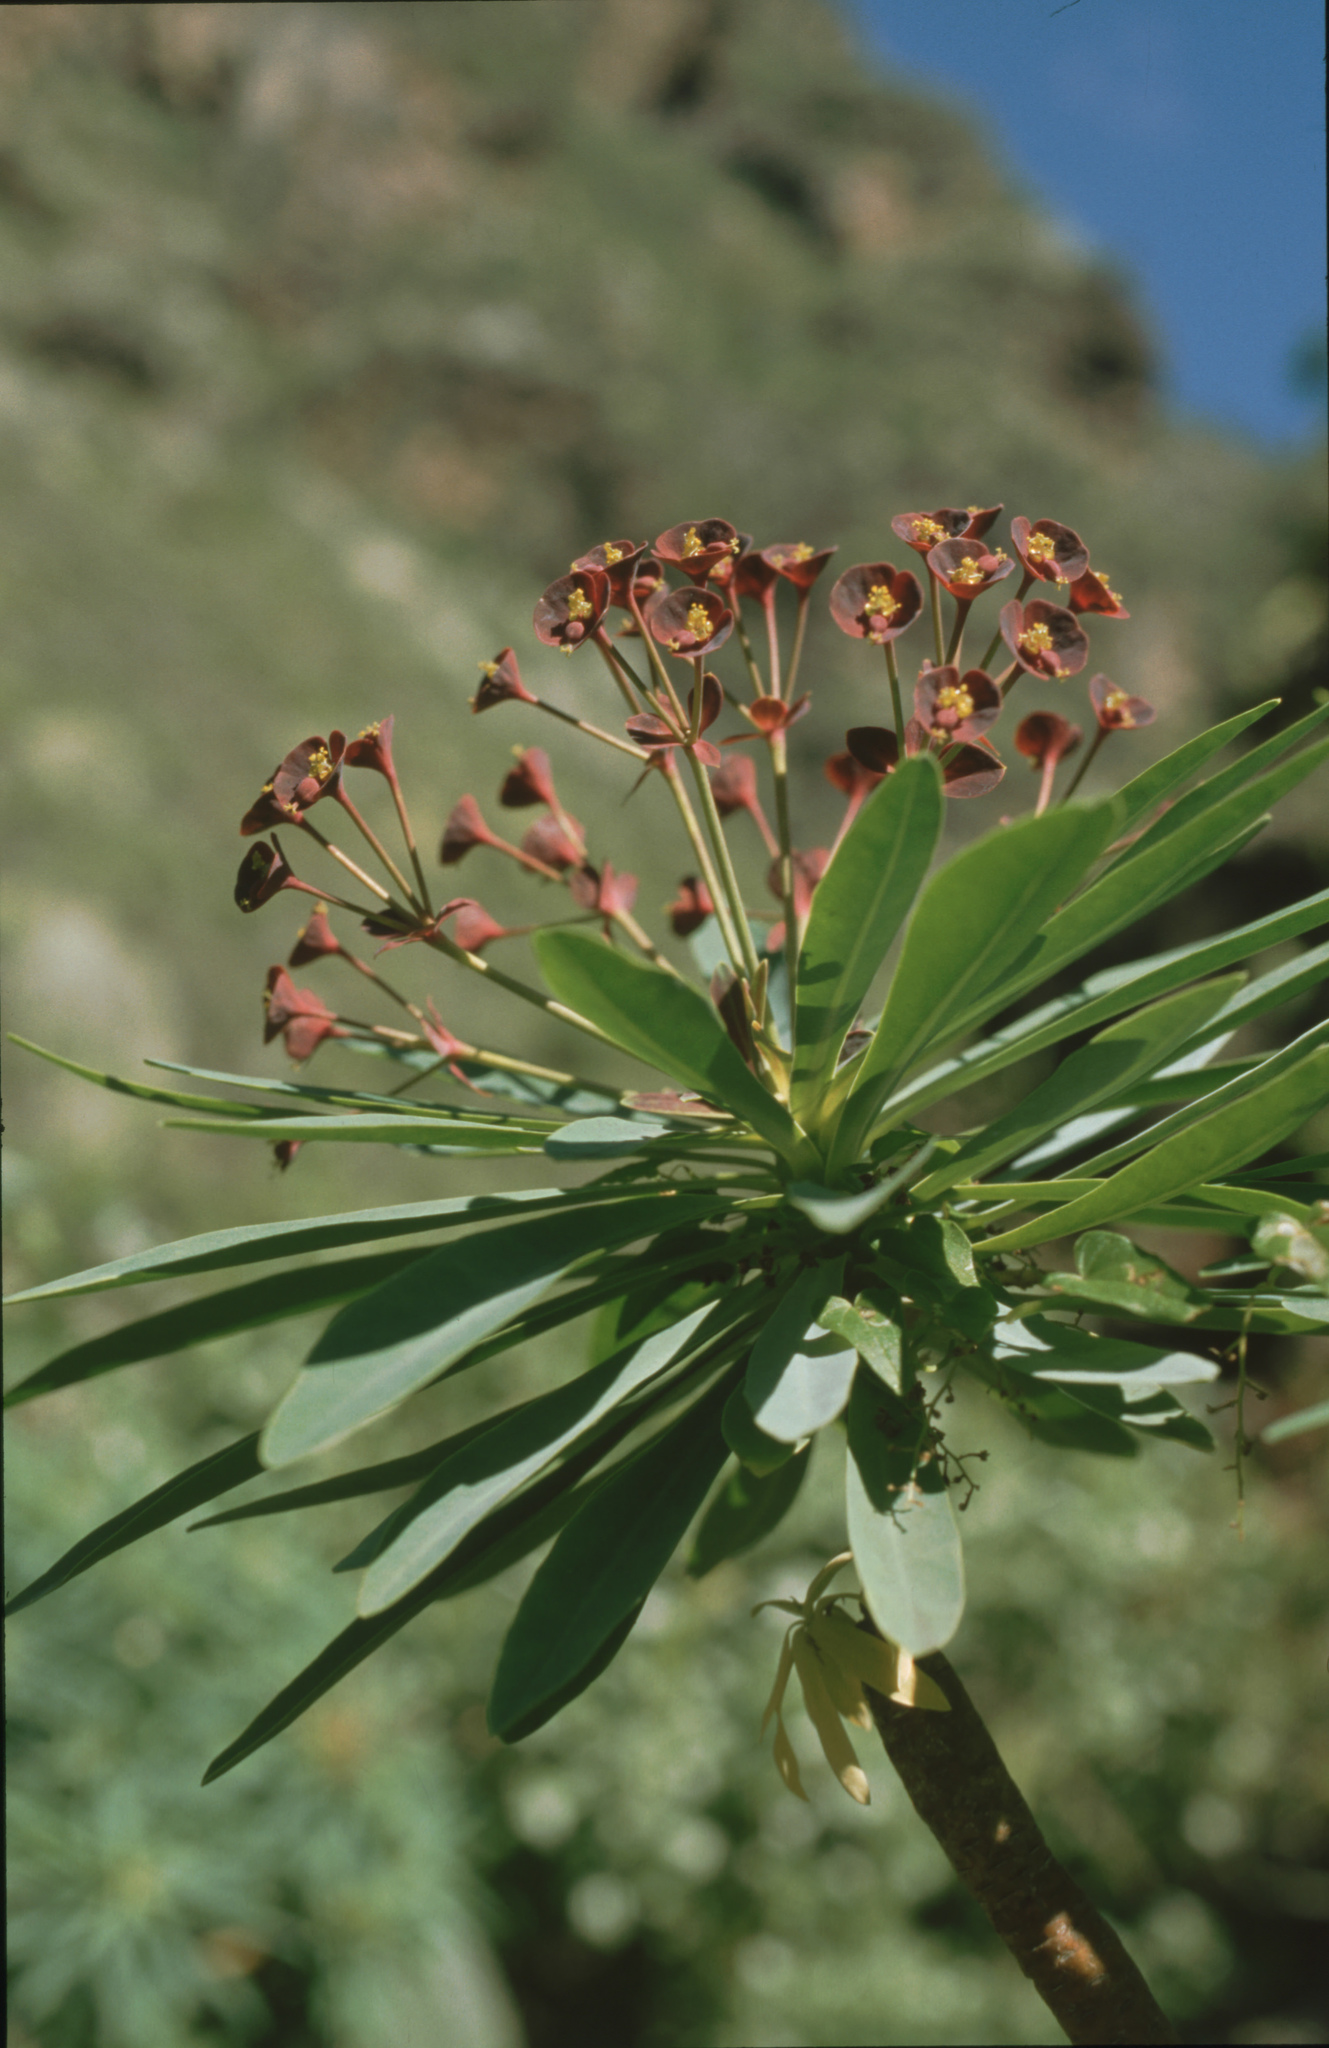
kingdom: Plantae
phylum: Tracheophyta
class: Magnoliopsida
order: Malpighiales
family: Euphorbiaceae
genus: Euphorbia
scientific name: Euphorbia atropurpurea
